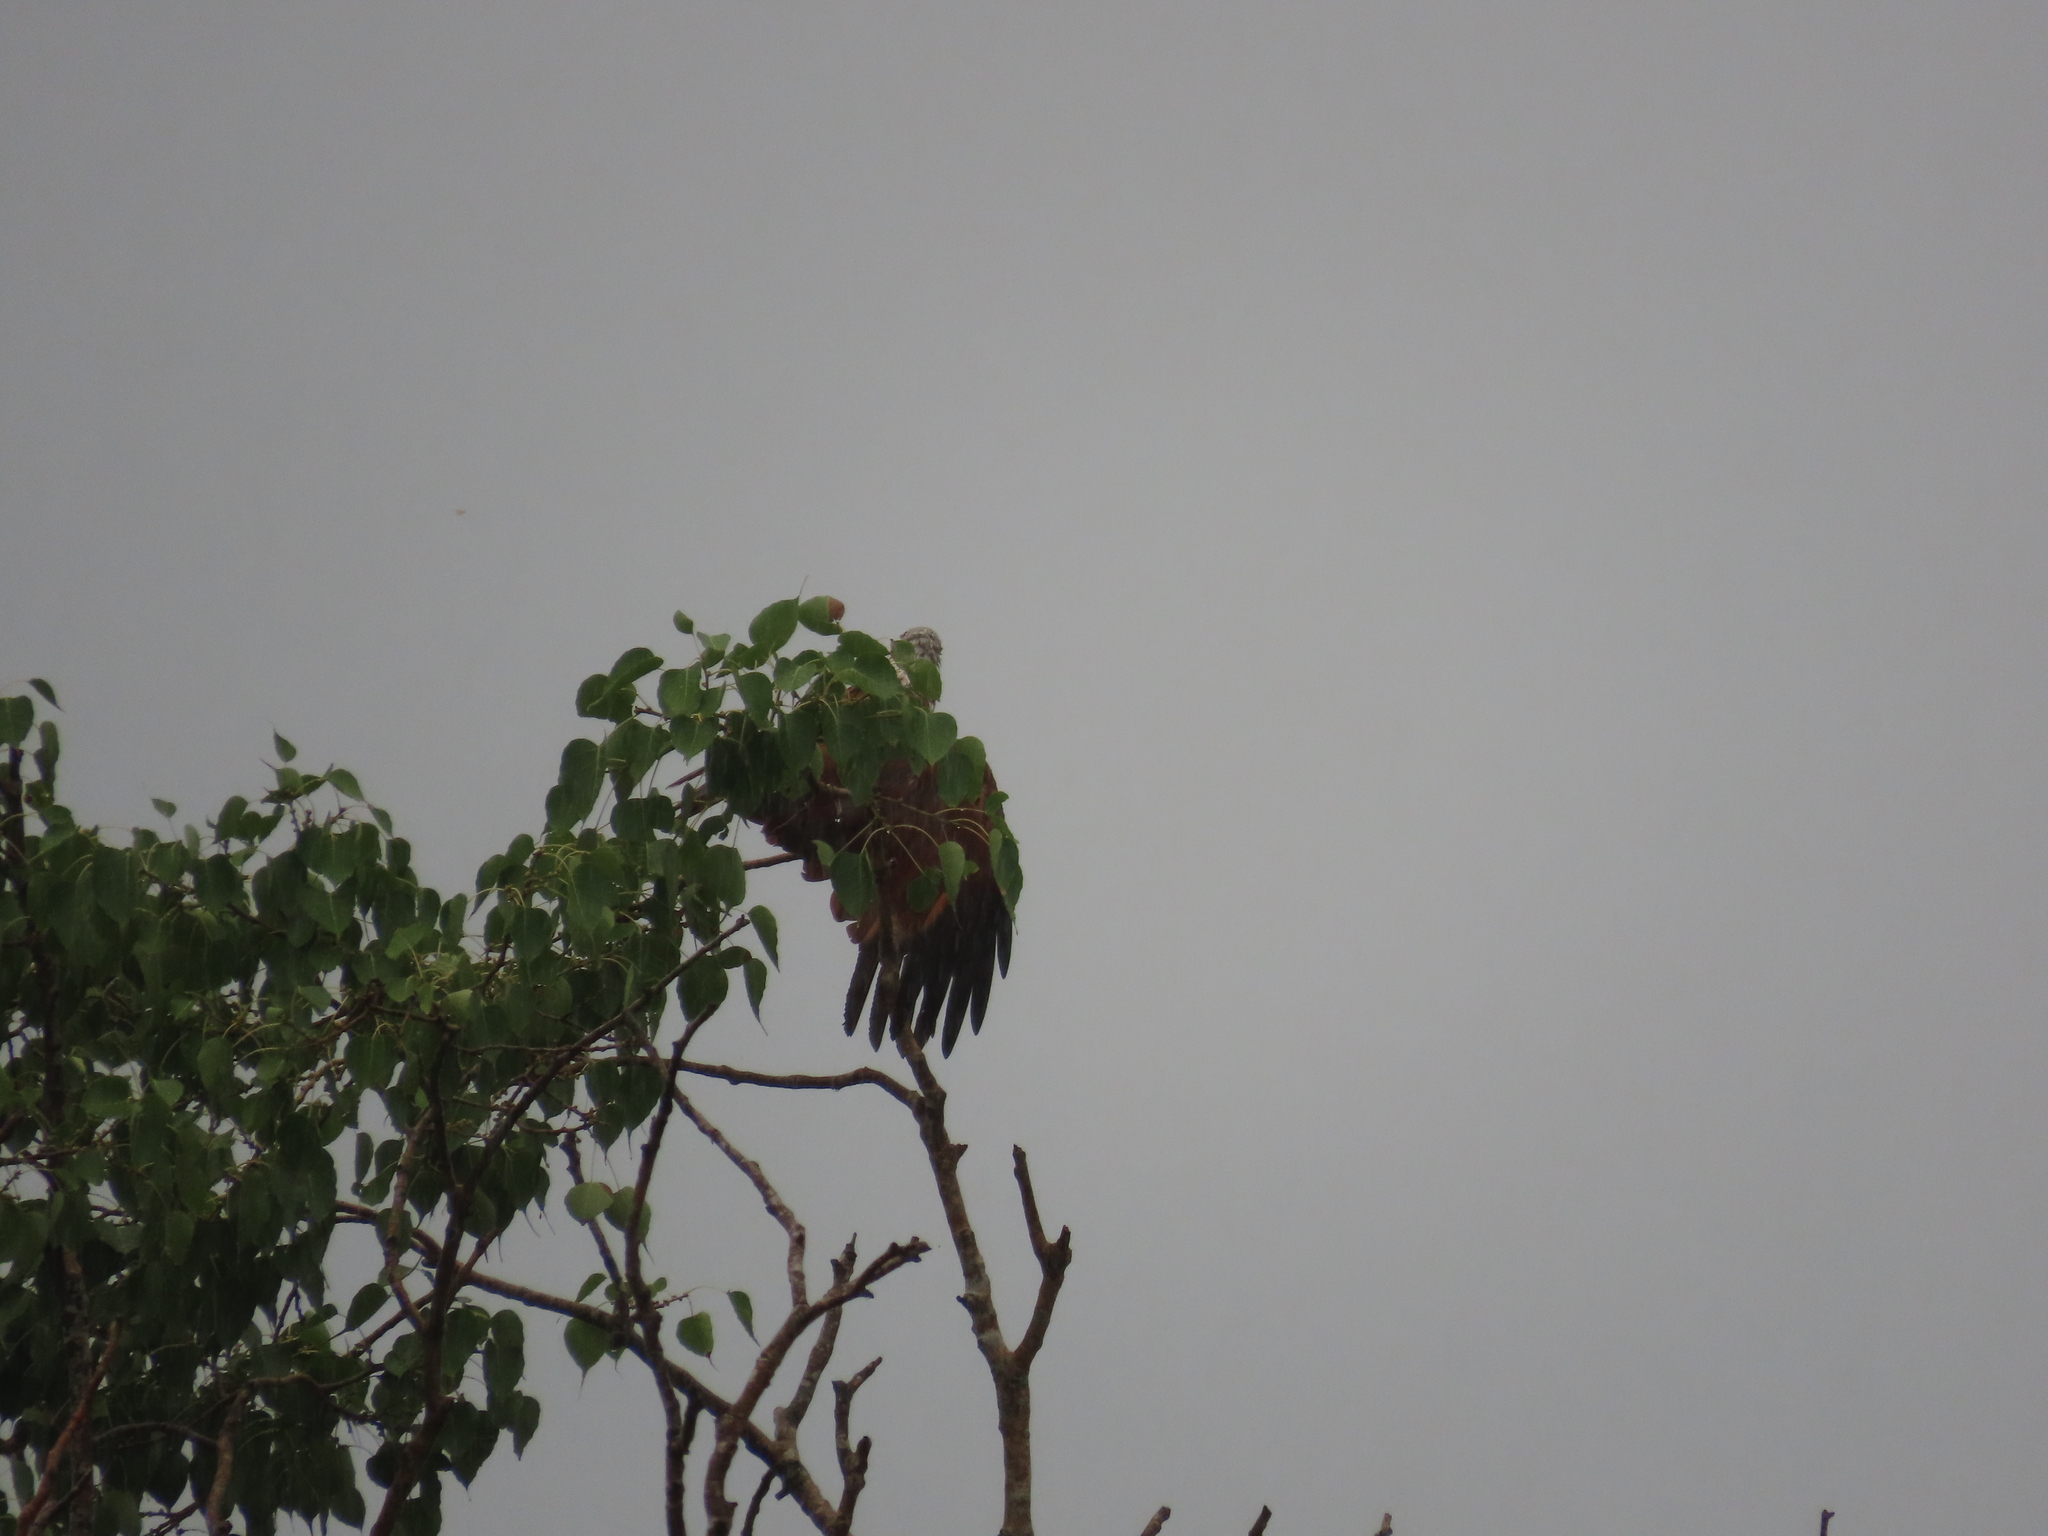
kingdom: Animalia
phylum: Chordata
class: Aves
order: Accipitriformes
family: Accipitridae
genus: Haliastur
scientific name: Haliastur indus
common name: Brahminy kite
